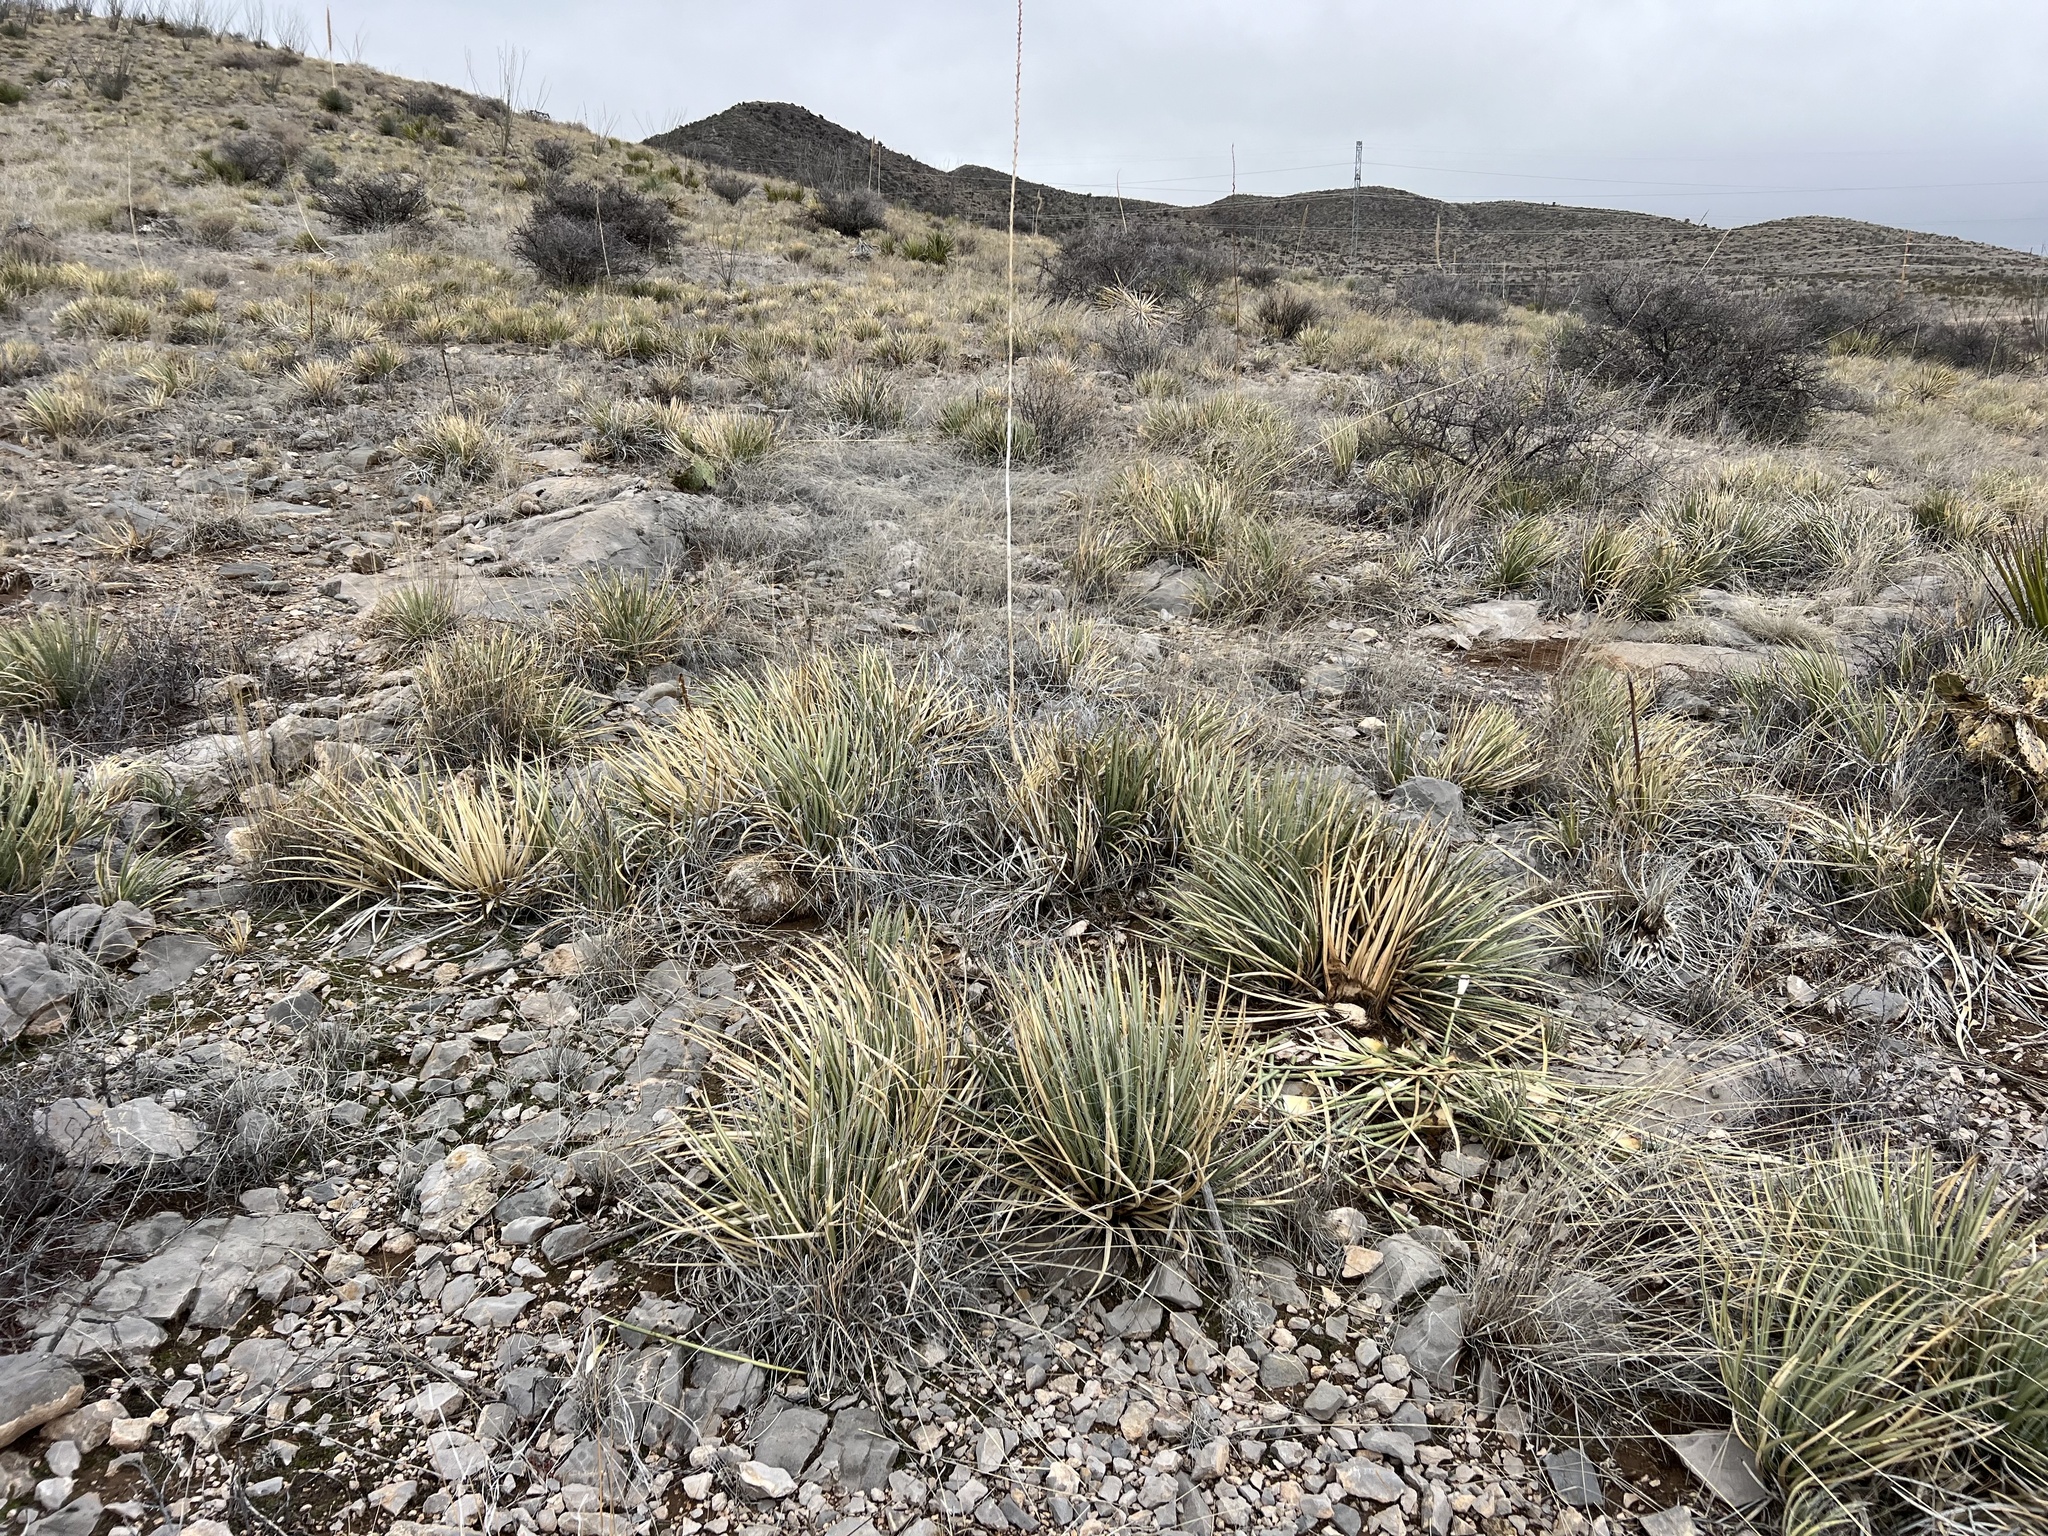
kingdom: Plantae
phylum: Tracheophyta
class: Liliopsida
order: Asparagales
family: Asparagaceae
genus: Agave
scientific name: Agave schottii
